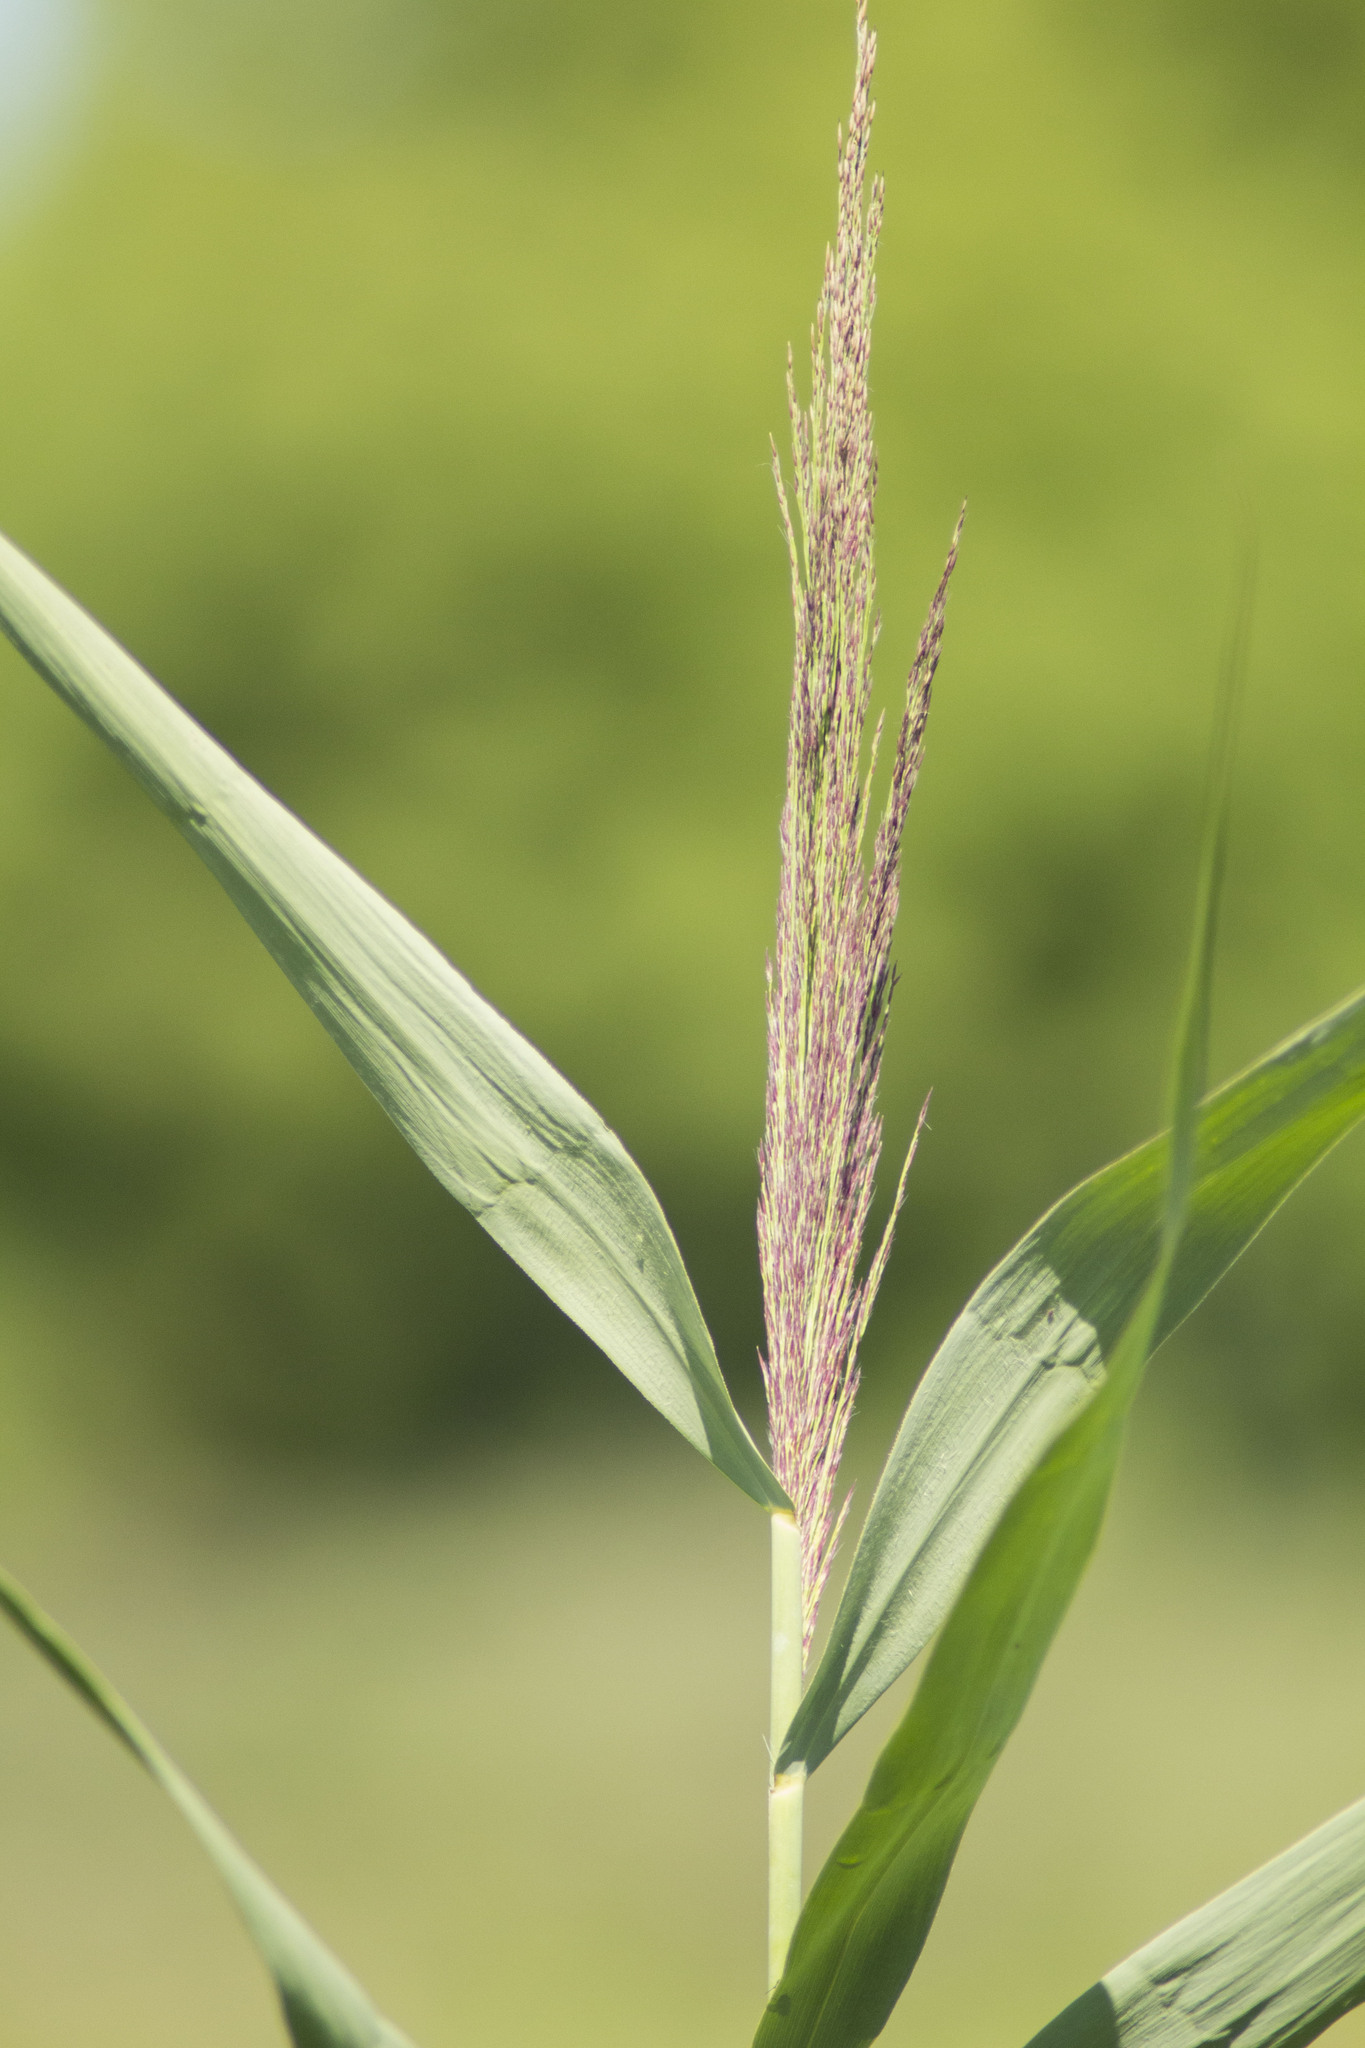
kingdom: Plantae
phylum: Tracheophyta
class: Liliopsida
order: Poales
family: Poaceae
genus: Phragmites
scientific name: Phragmites australis
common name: Common reed
